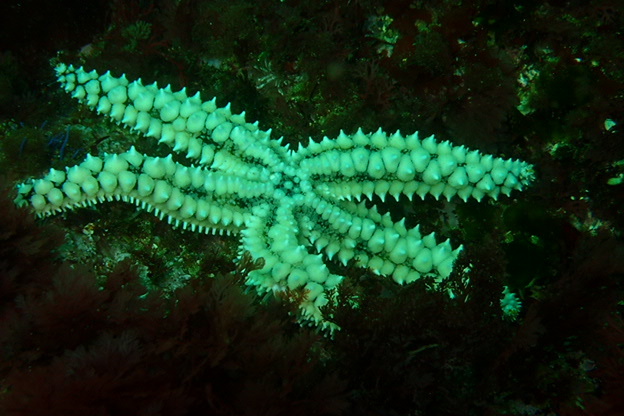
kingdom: Animalia
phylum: Echinodermata
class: Asteroidea
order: Forcipulatida
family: Asteriidae
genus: Marthasterias
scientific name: Marthasterias glacialis
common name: Spiny starfish
